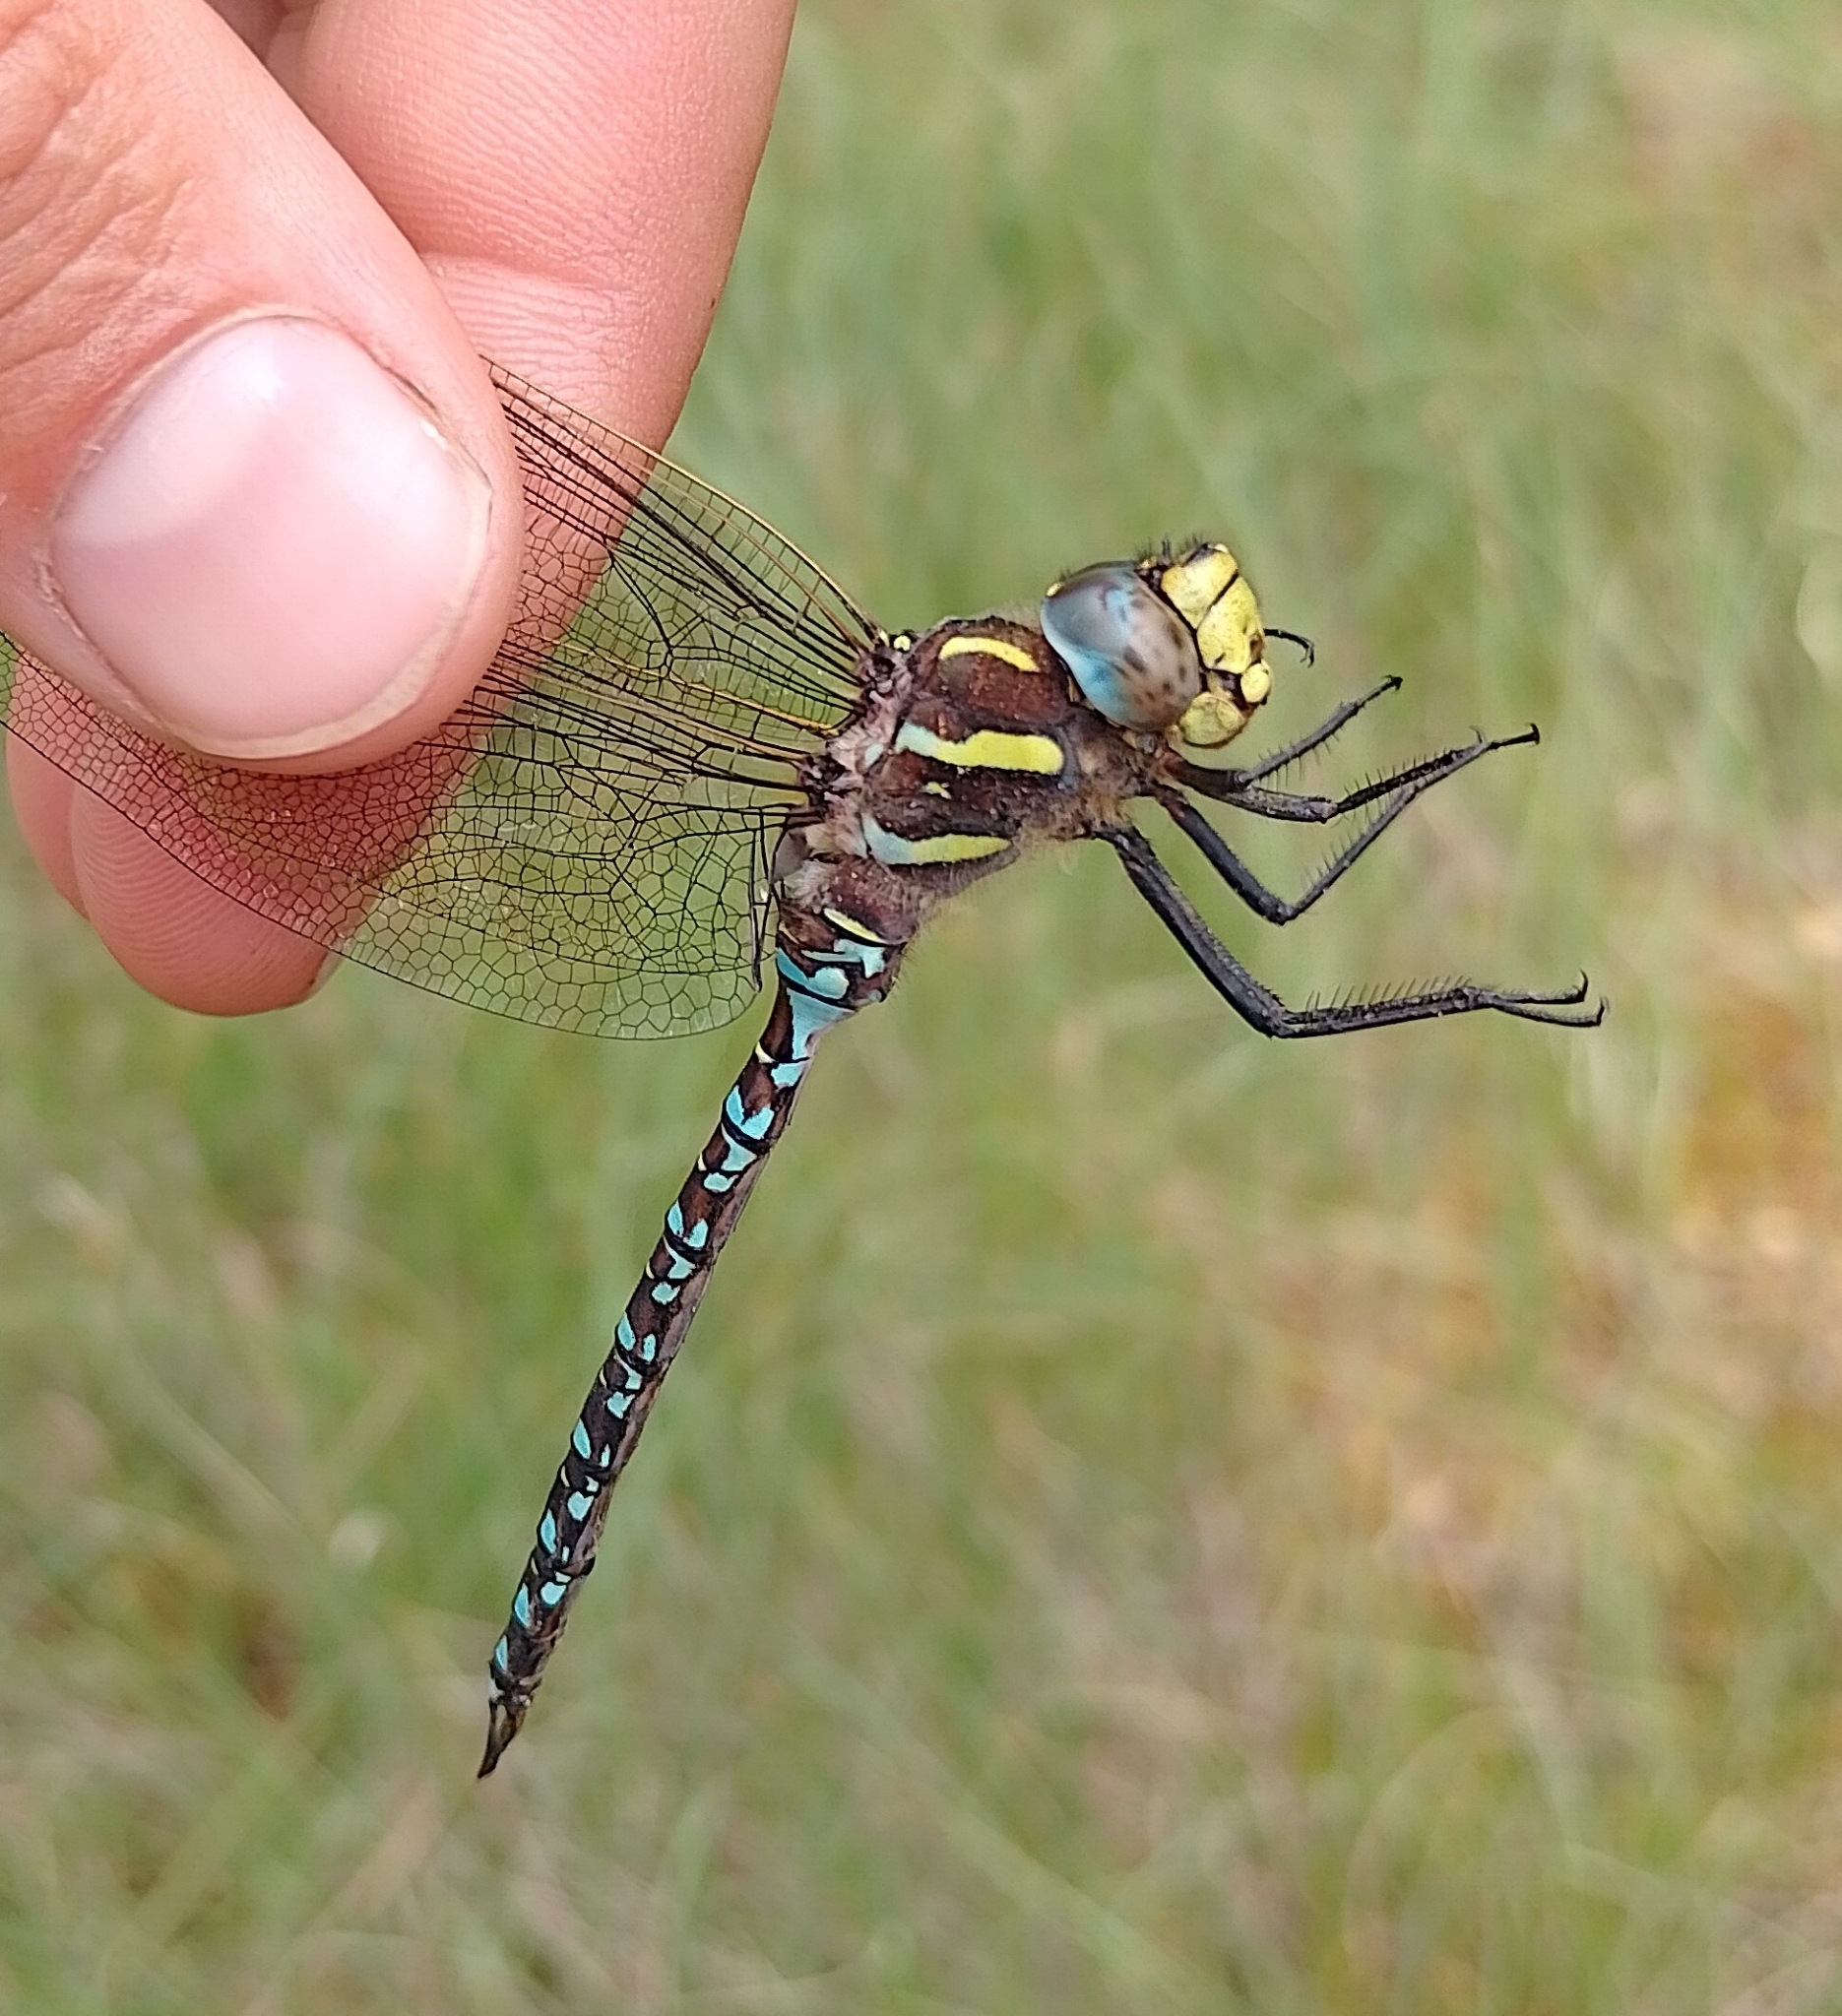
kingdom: Animalia
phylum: Arthropoda
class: Insecta
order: Odonata
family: Aeshnidae
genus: Aeshna
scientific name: Aeshna juncea
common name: Moorland hawker
